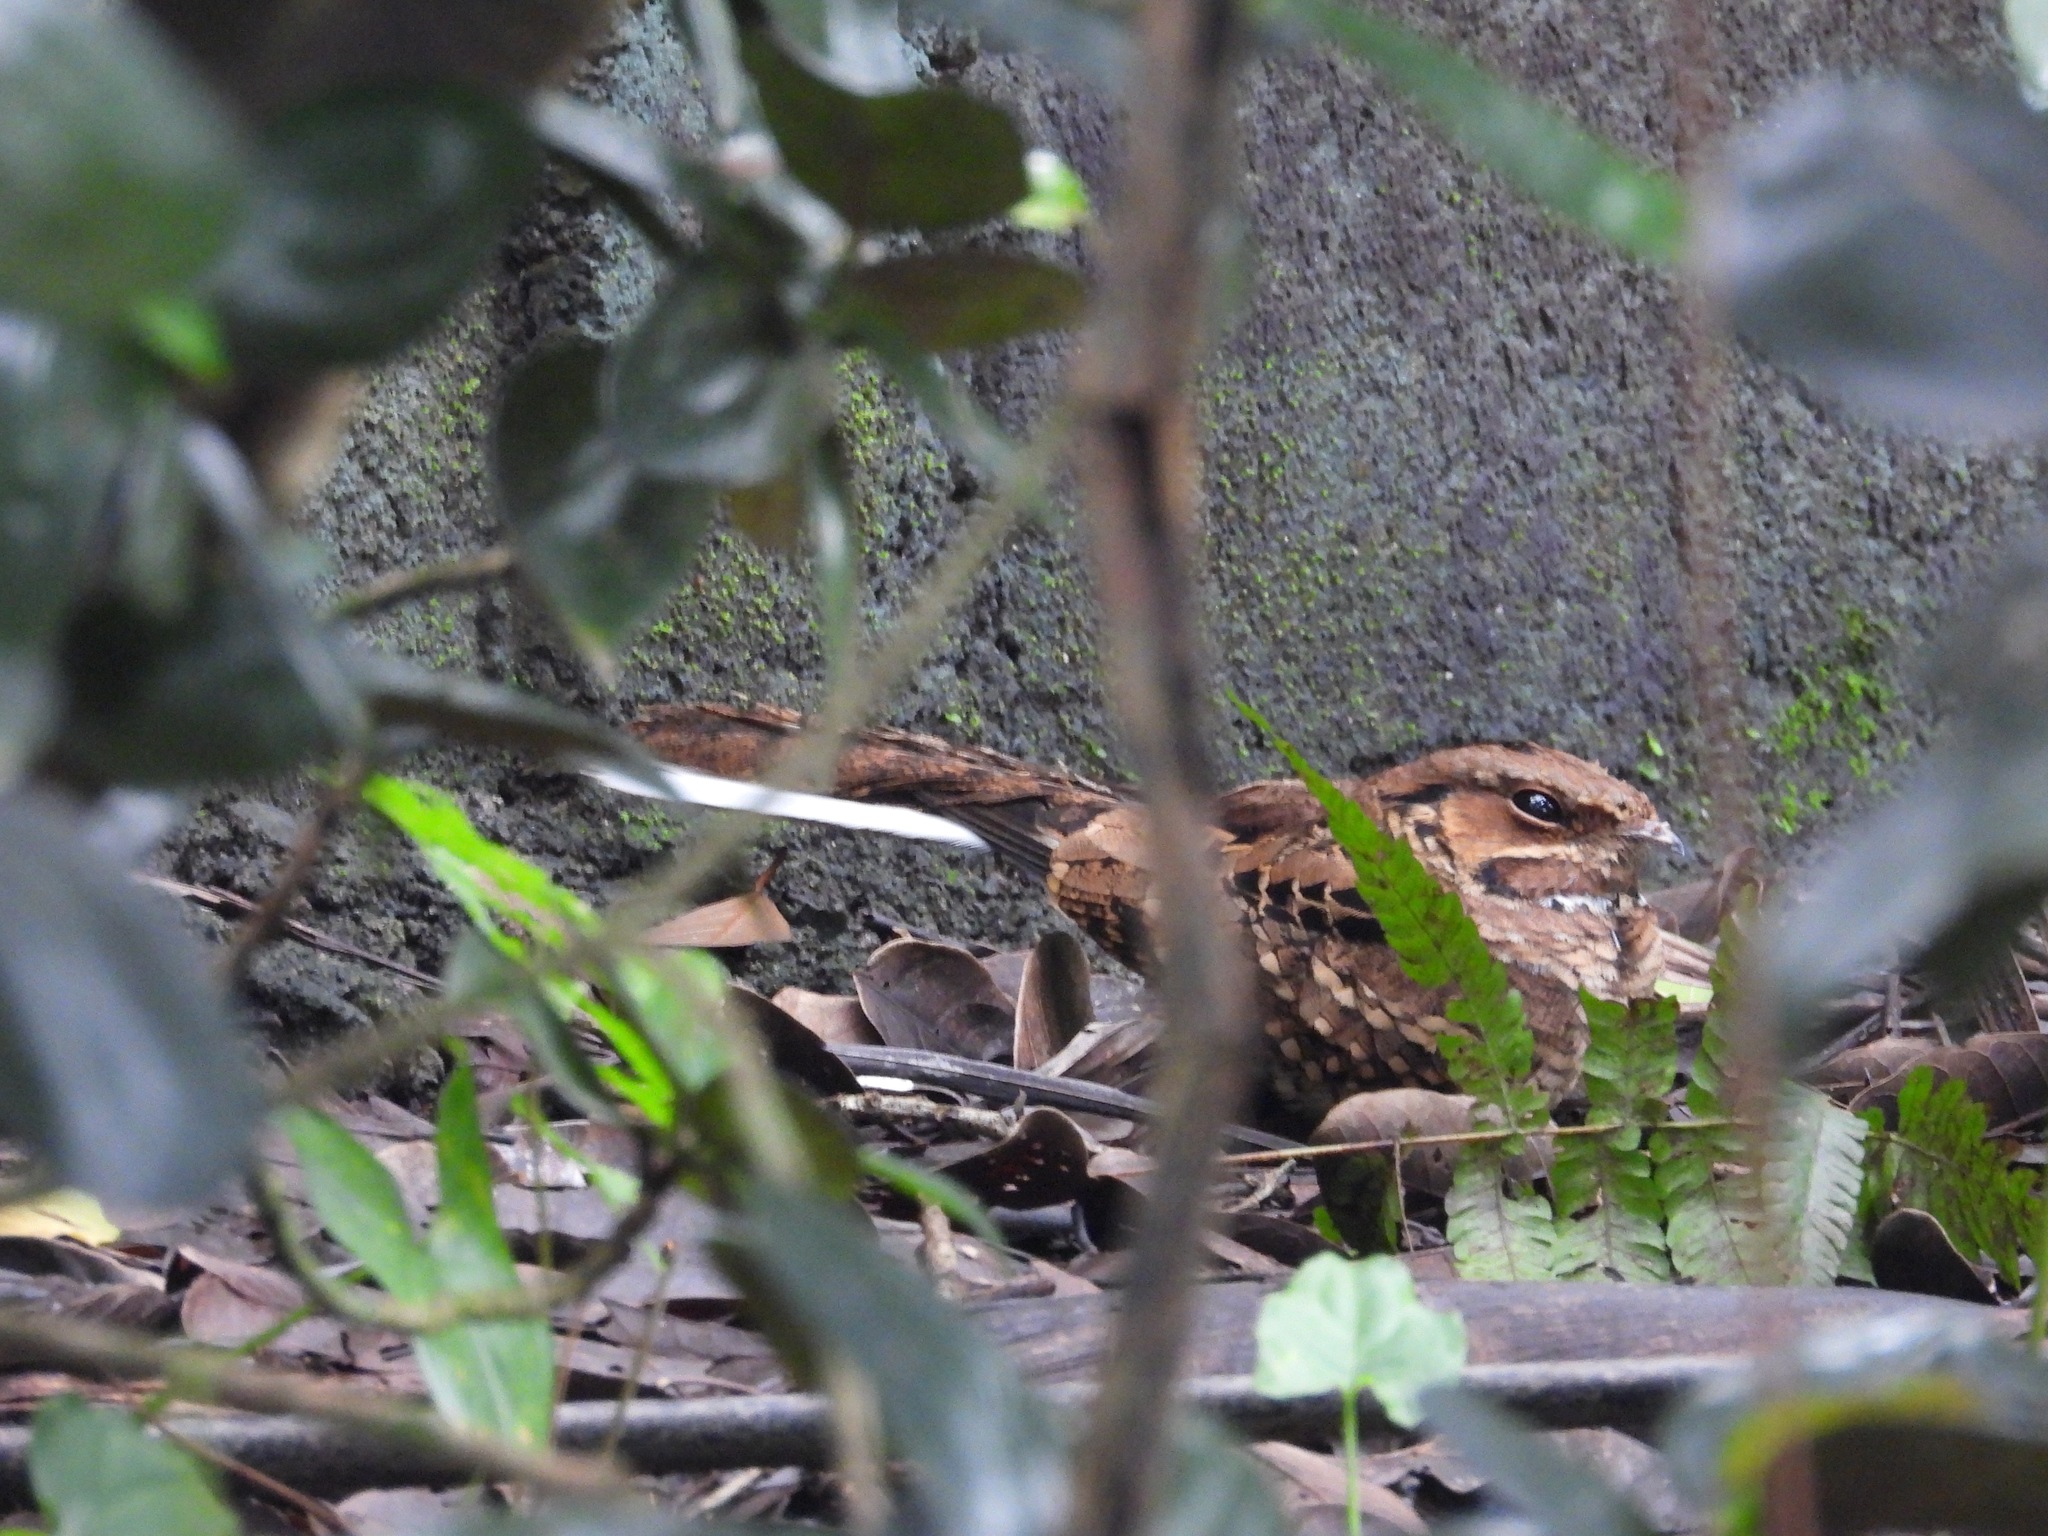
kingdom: Animalia
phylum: Chordata
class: Aves
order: Caprimulgiformes
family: Caprimulgidae
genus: Nyctidromus
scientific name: Nyctidromus albicollis
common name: Pauraque
